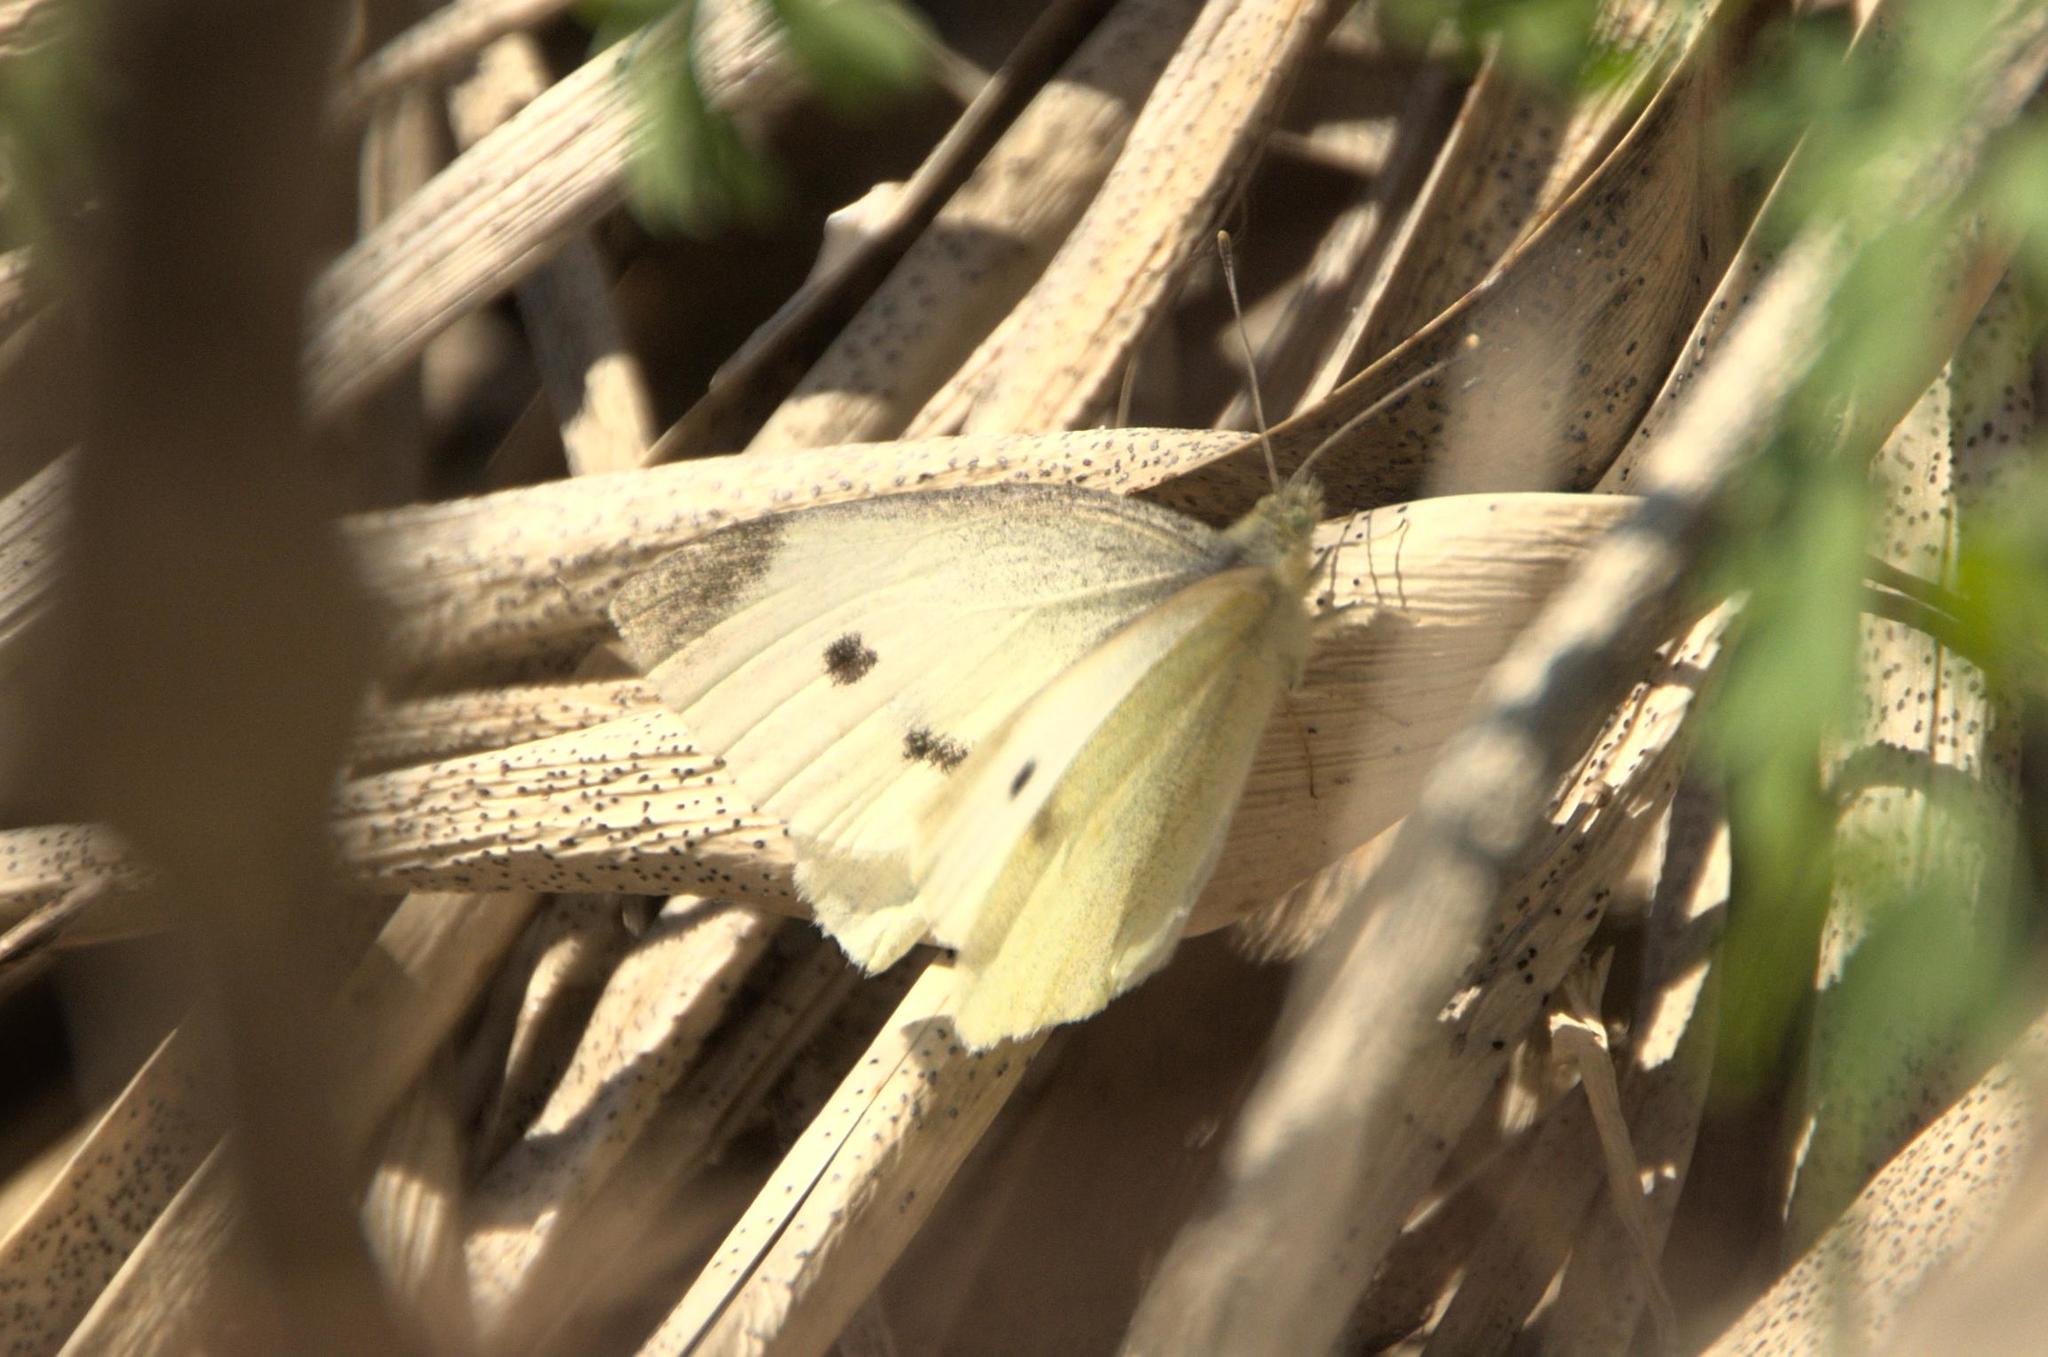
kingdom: Animalia
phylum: Arthropoda
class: Insecta
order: Lepidoptera
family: Pieridae
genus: Pieris
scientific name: Pieris rapae
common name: Small white
